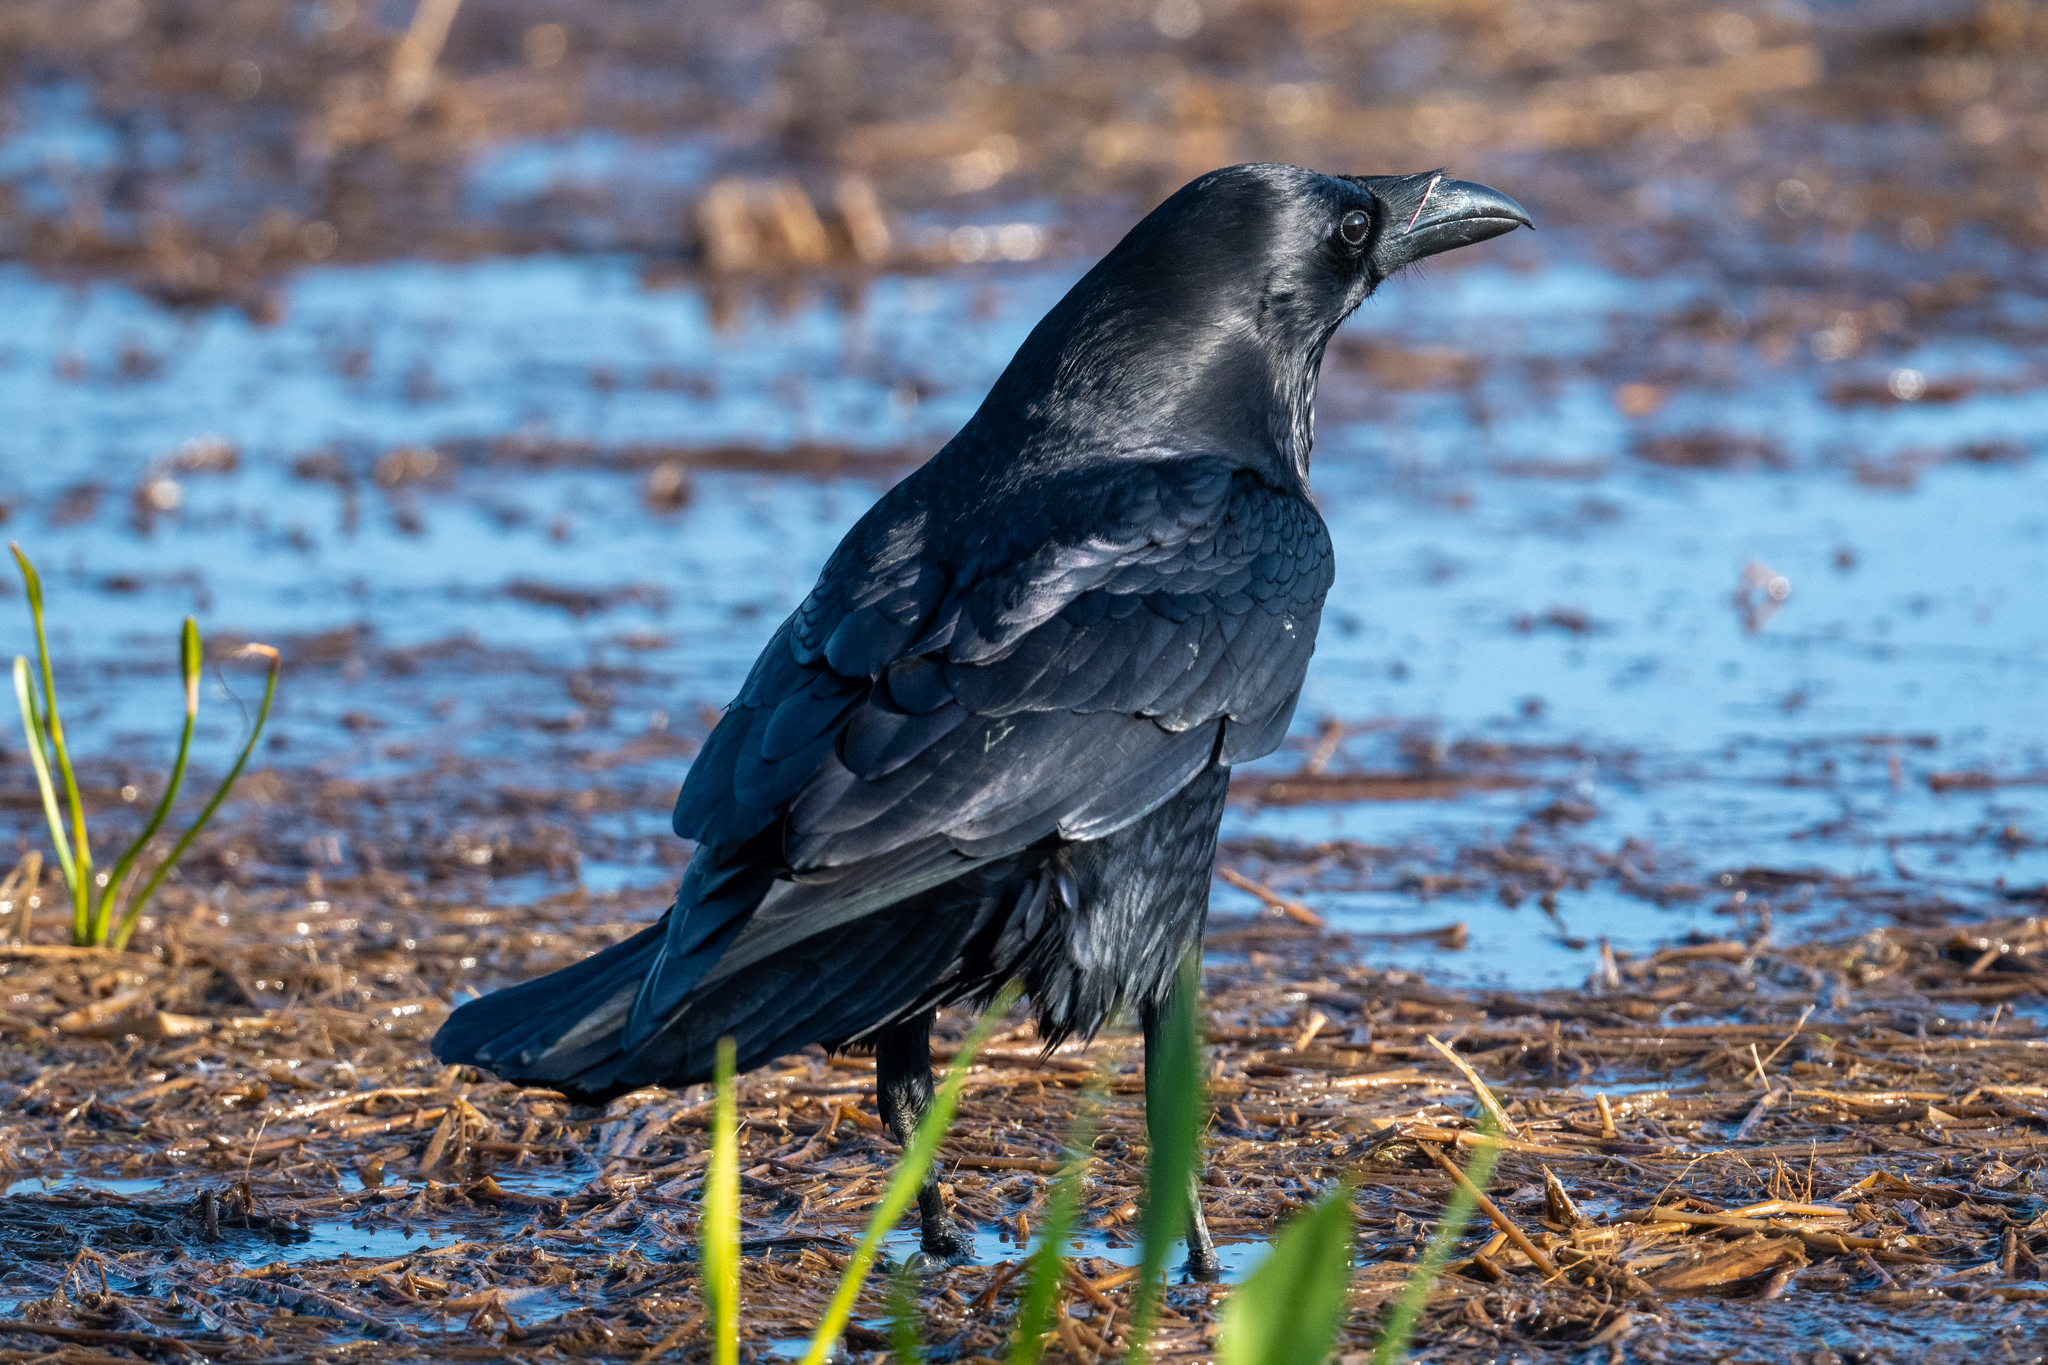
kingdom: Animalia
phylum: Chordata
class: Aves
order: Passeriformes
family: Corvidae
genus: Corvus
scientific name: Corvus corax
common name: Common raven
